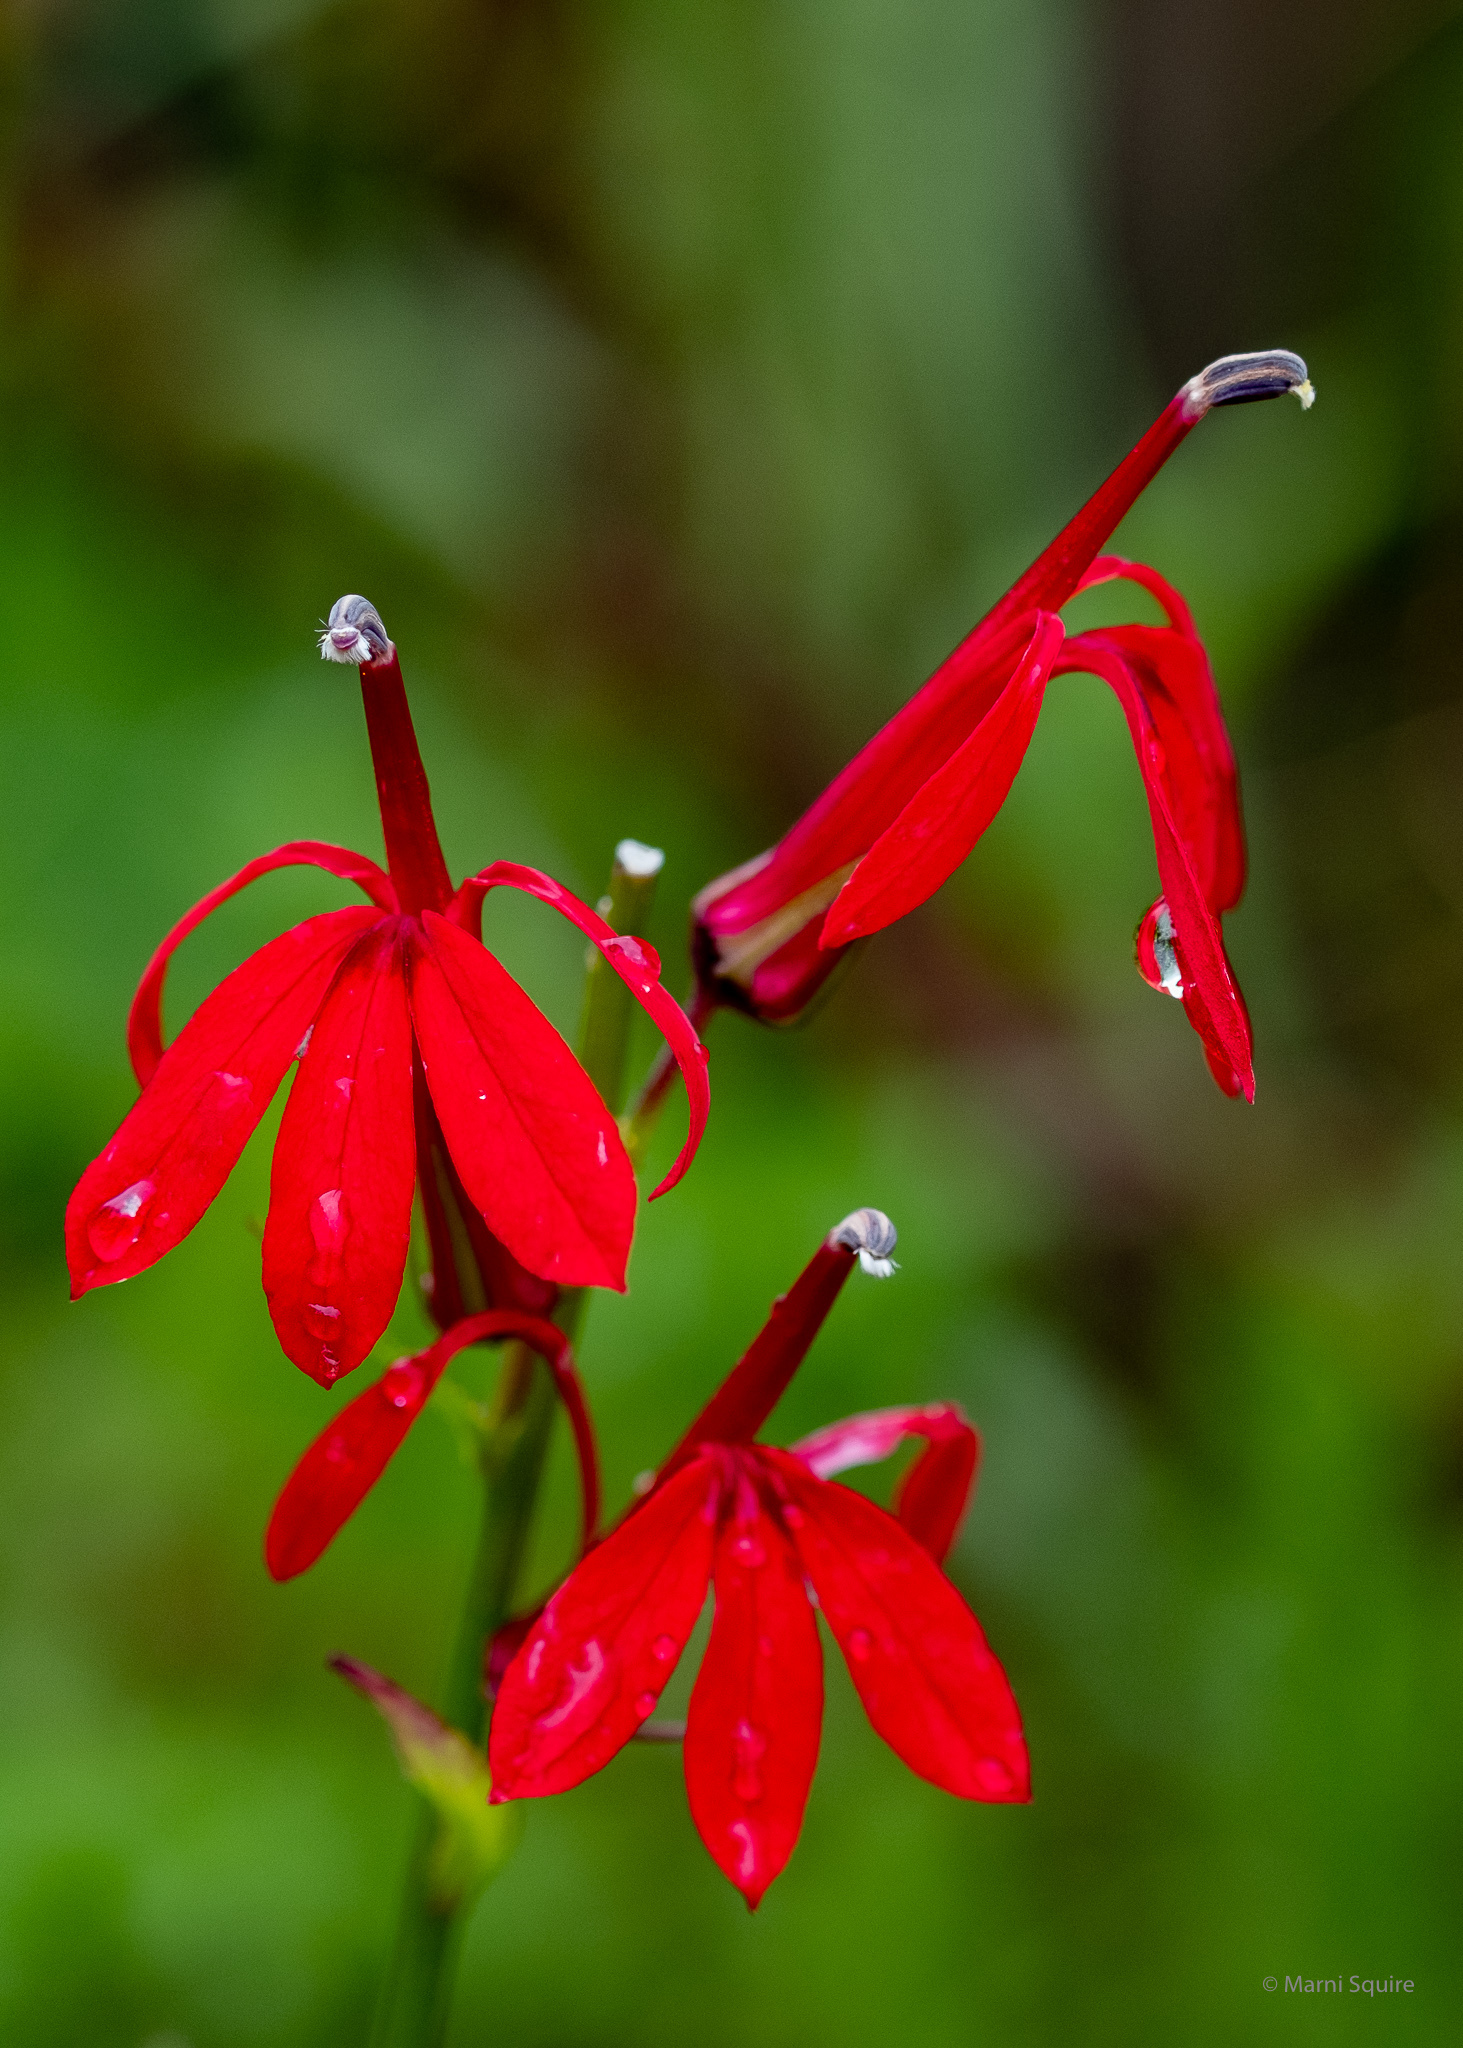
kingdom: Plantae
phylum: Tracheophyta
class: Magnoliopsida
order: Asterales
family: Campanulaceae
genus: Lobelia
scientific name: Lobelia cardinalis
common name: Cardinal flower
